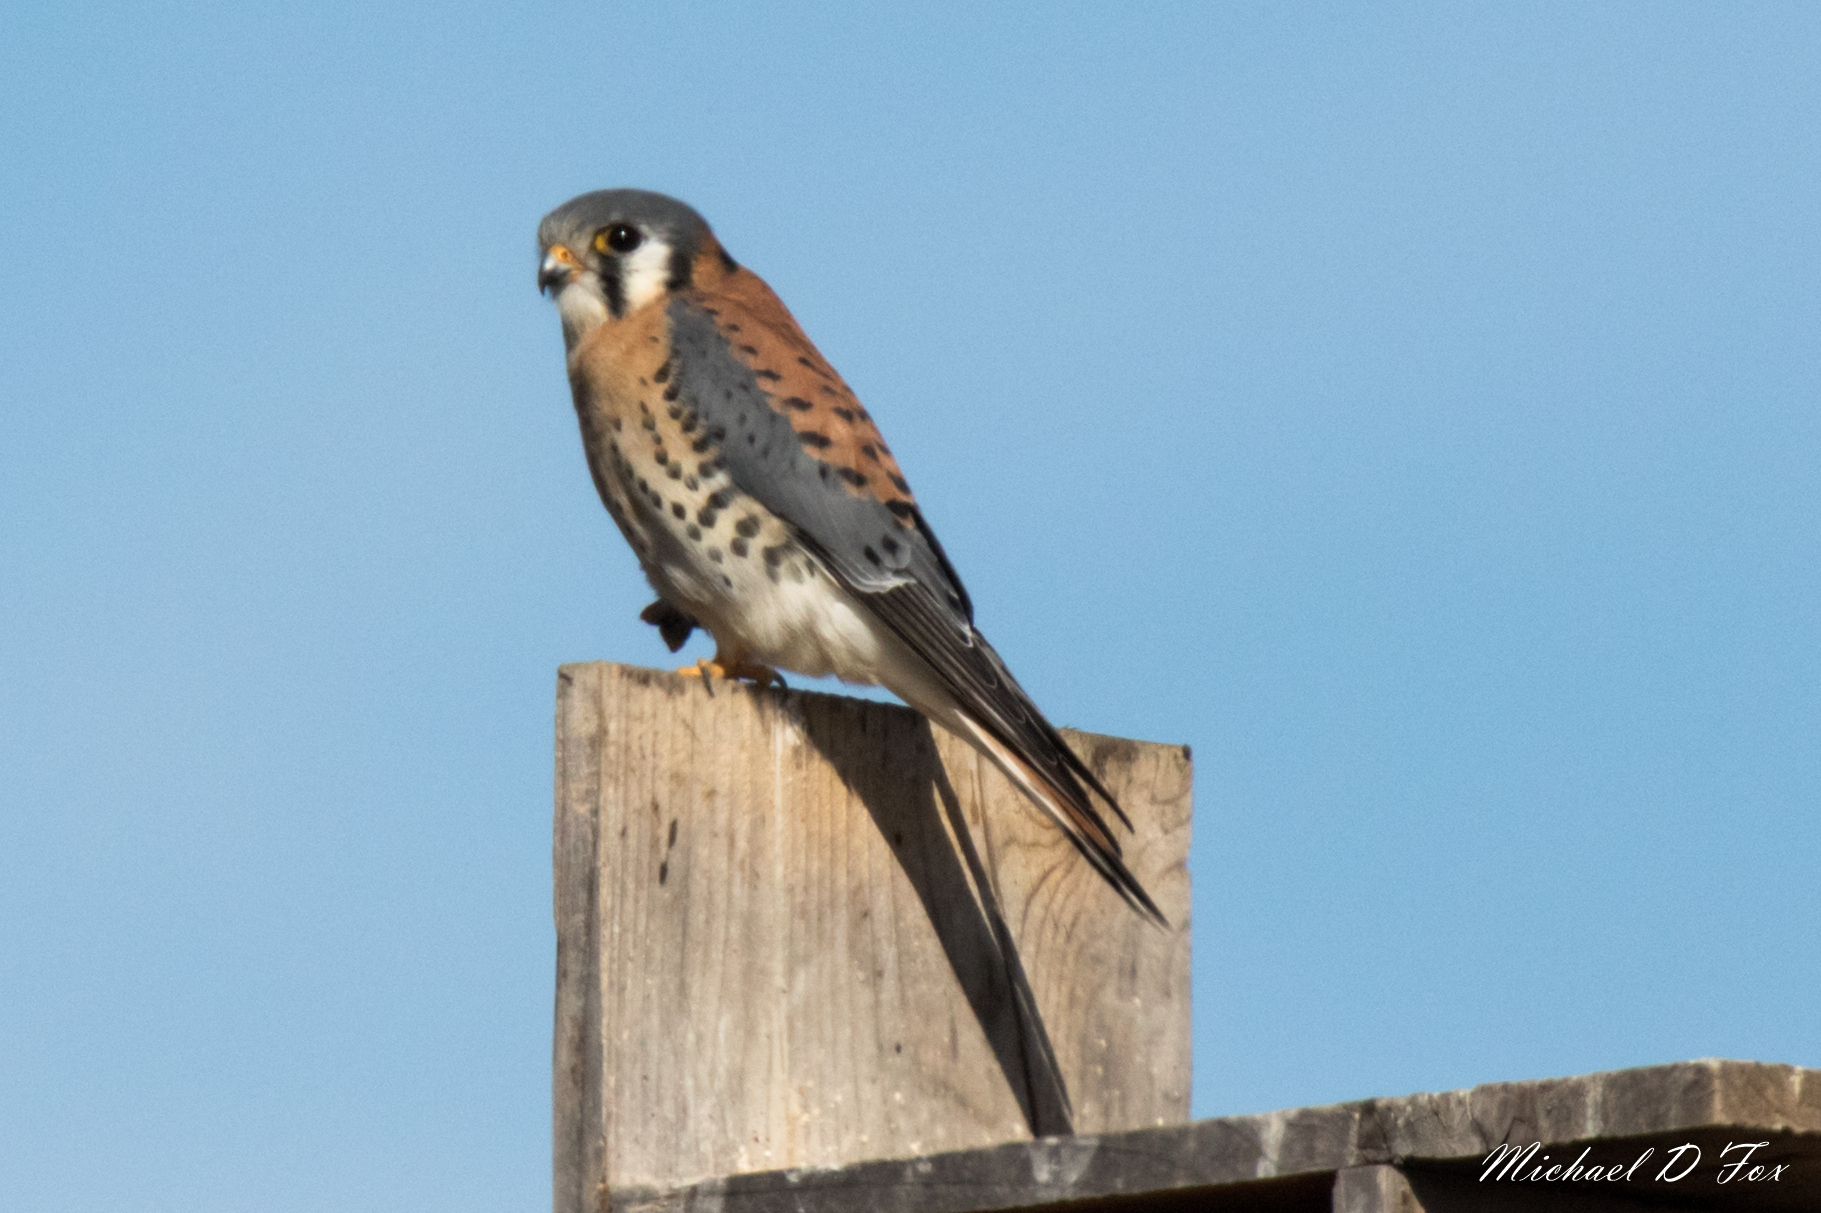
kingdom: Animalia
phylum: Chordata
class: Aves
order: Falconiformes
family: Falconidae
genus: Falco
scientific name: Falco sparverius
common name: American kestrel
